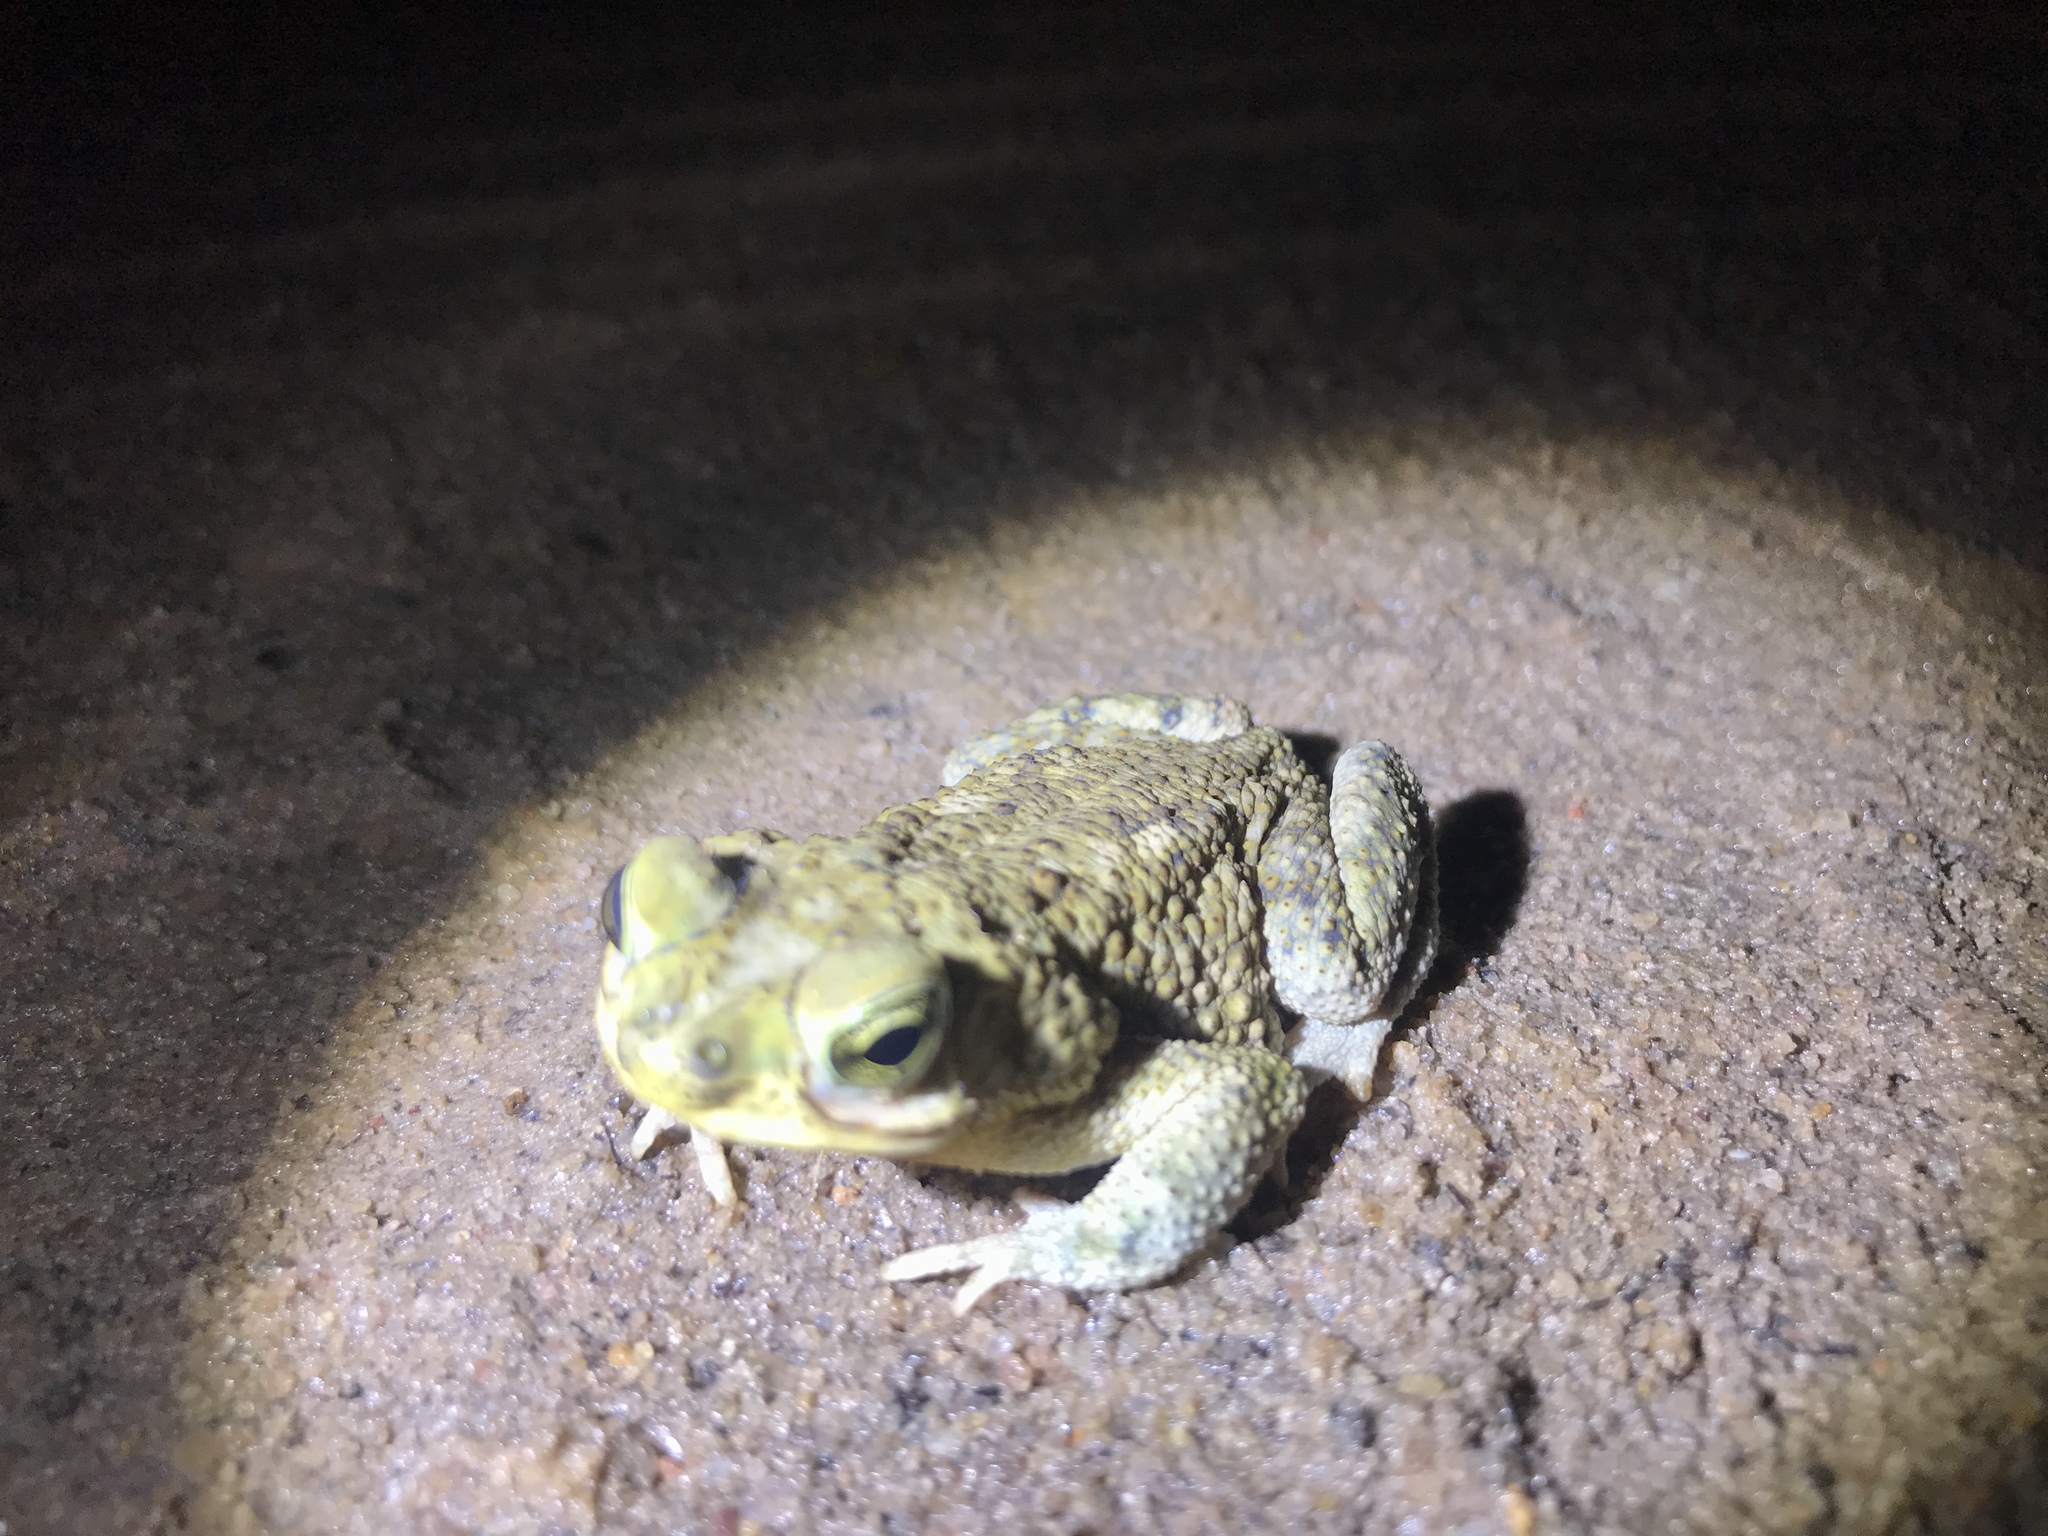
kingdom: Animalia
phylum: Chordata
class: Amphibia
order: Anura
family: Bufonidae
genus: Rhinella
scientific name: Rhinella granulosa
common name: Common lesser toad
